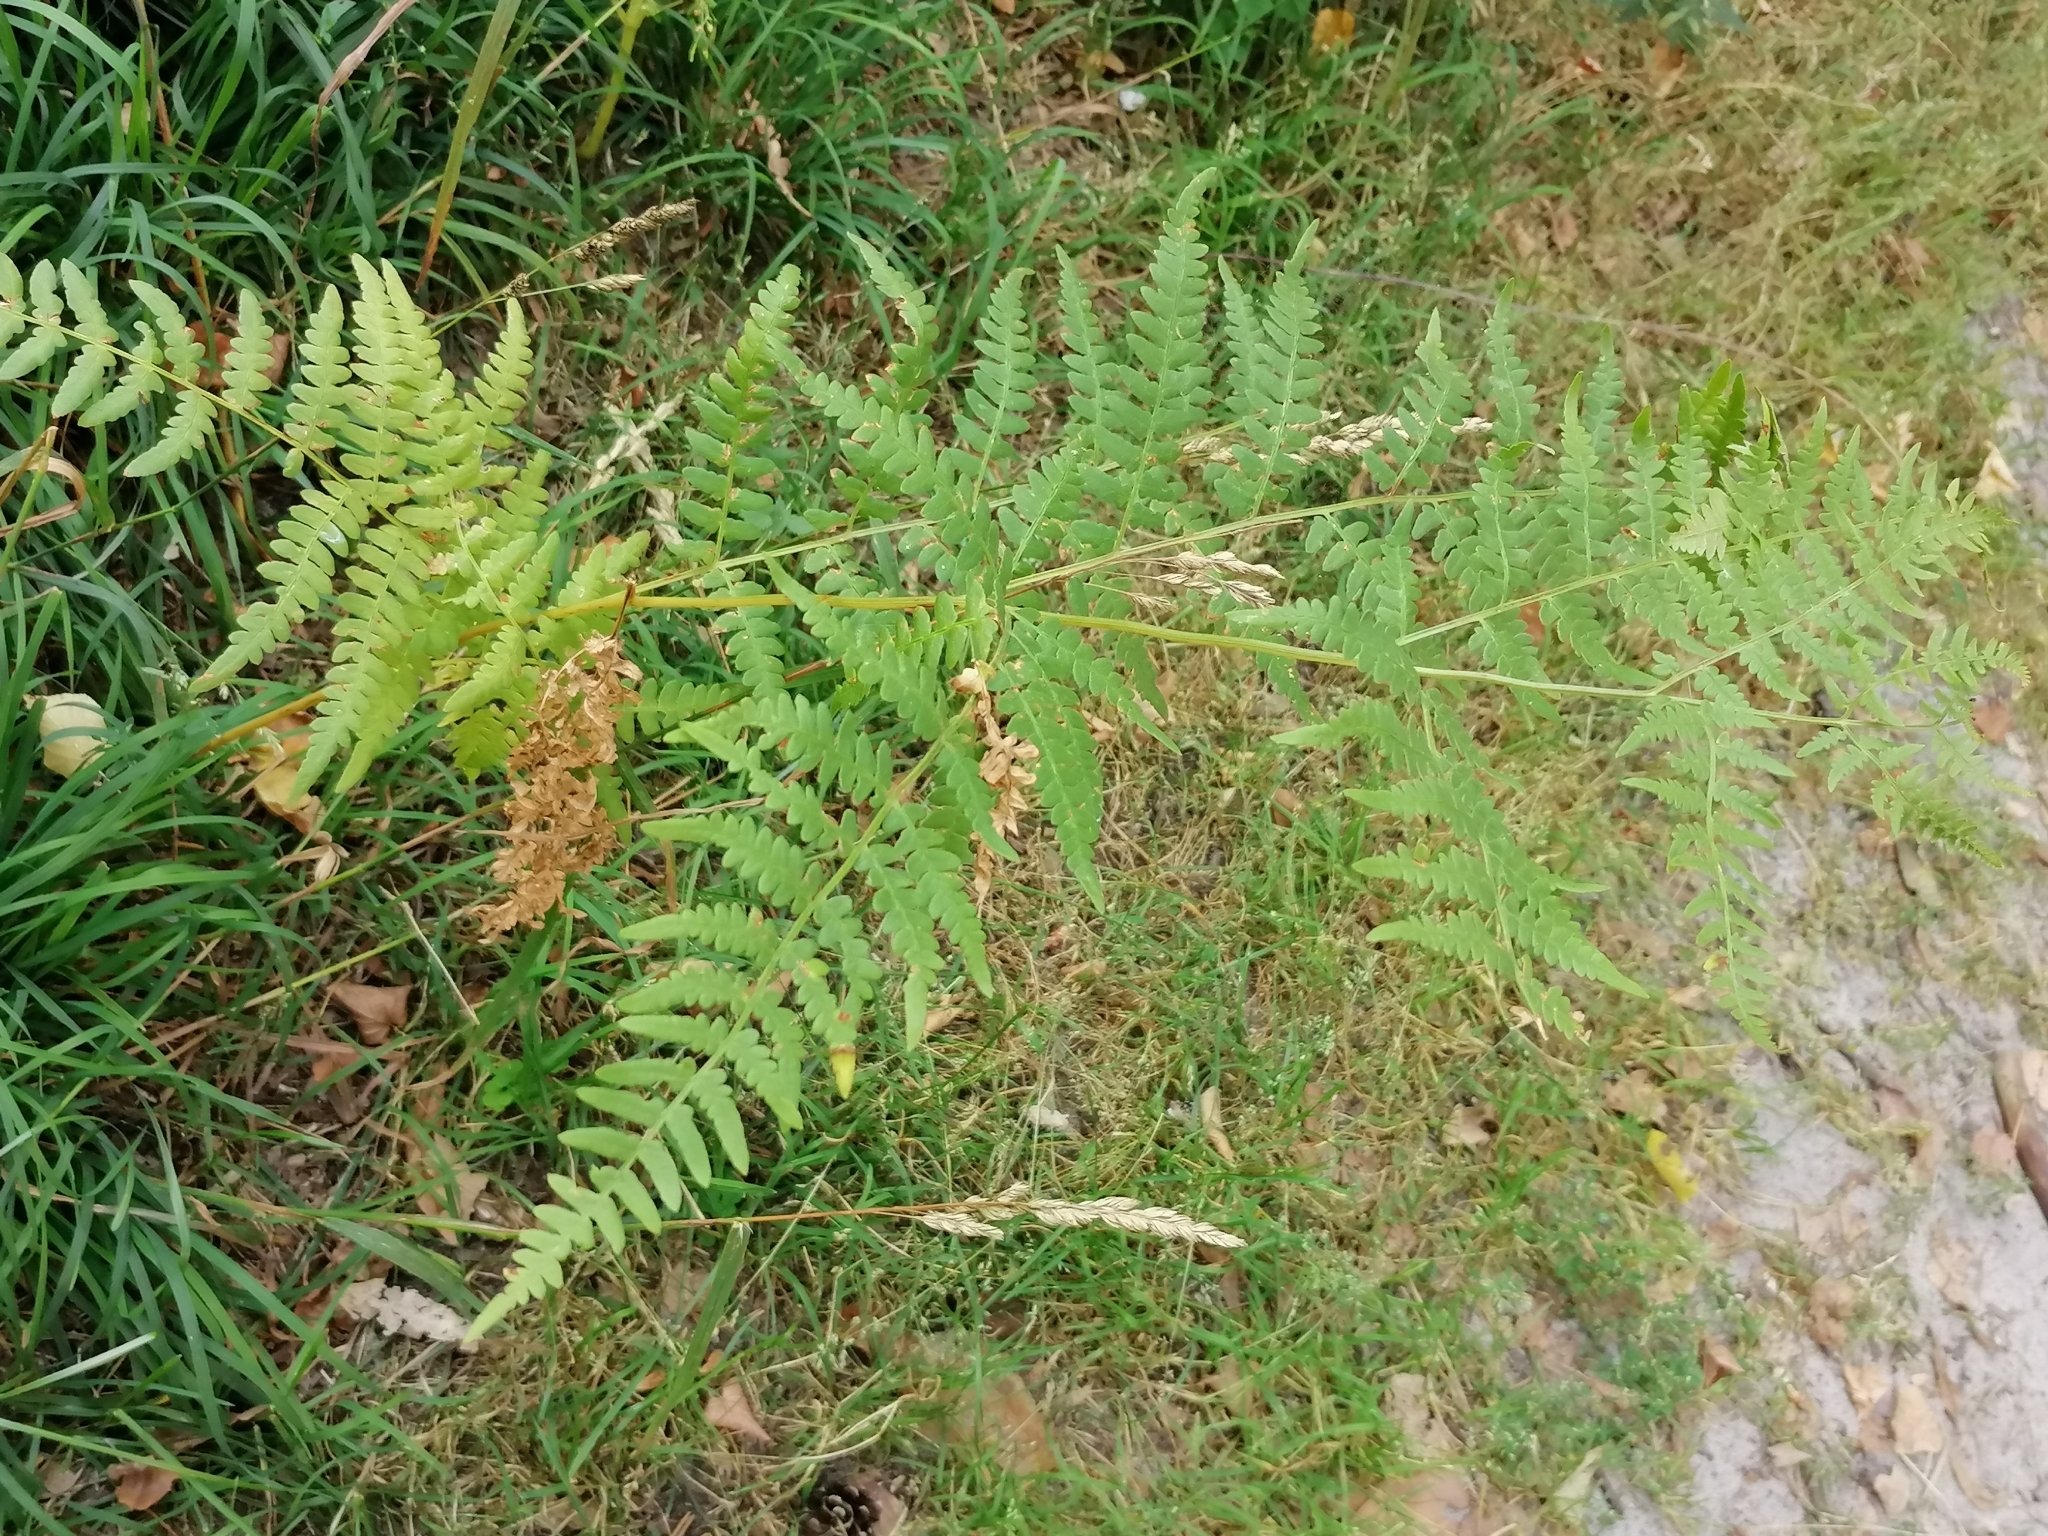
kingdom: Plantae
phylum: Tracheophyta
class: Polypodiopsida
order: Polypodiales
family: Dennstaedtiaceae
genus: Pteridium
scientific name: Pteridium aquilinum
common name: Bracken
